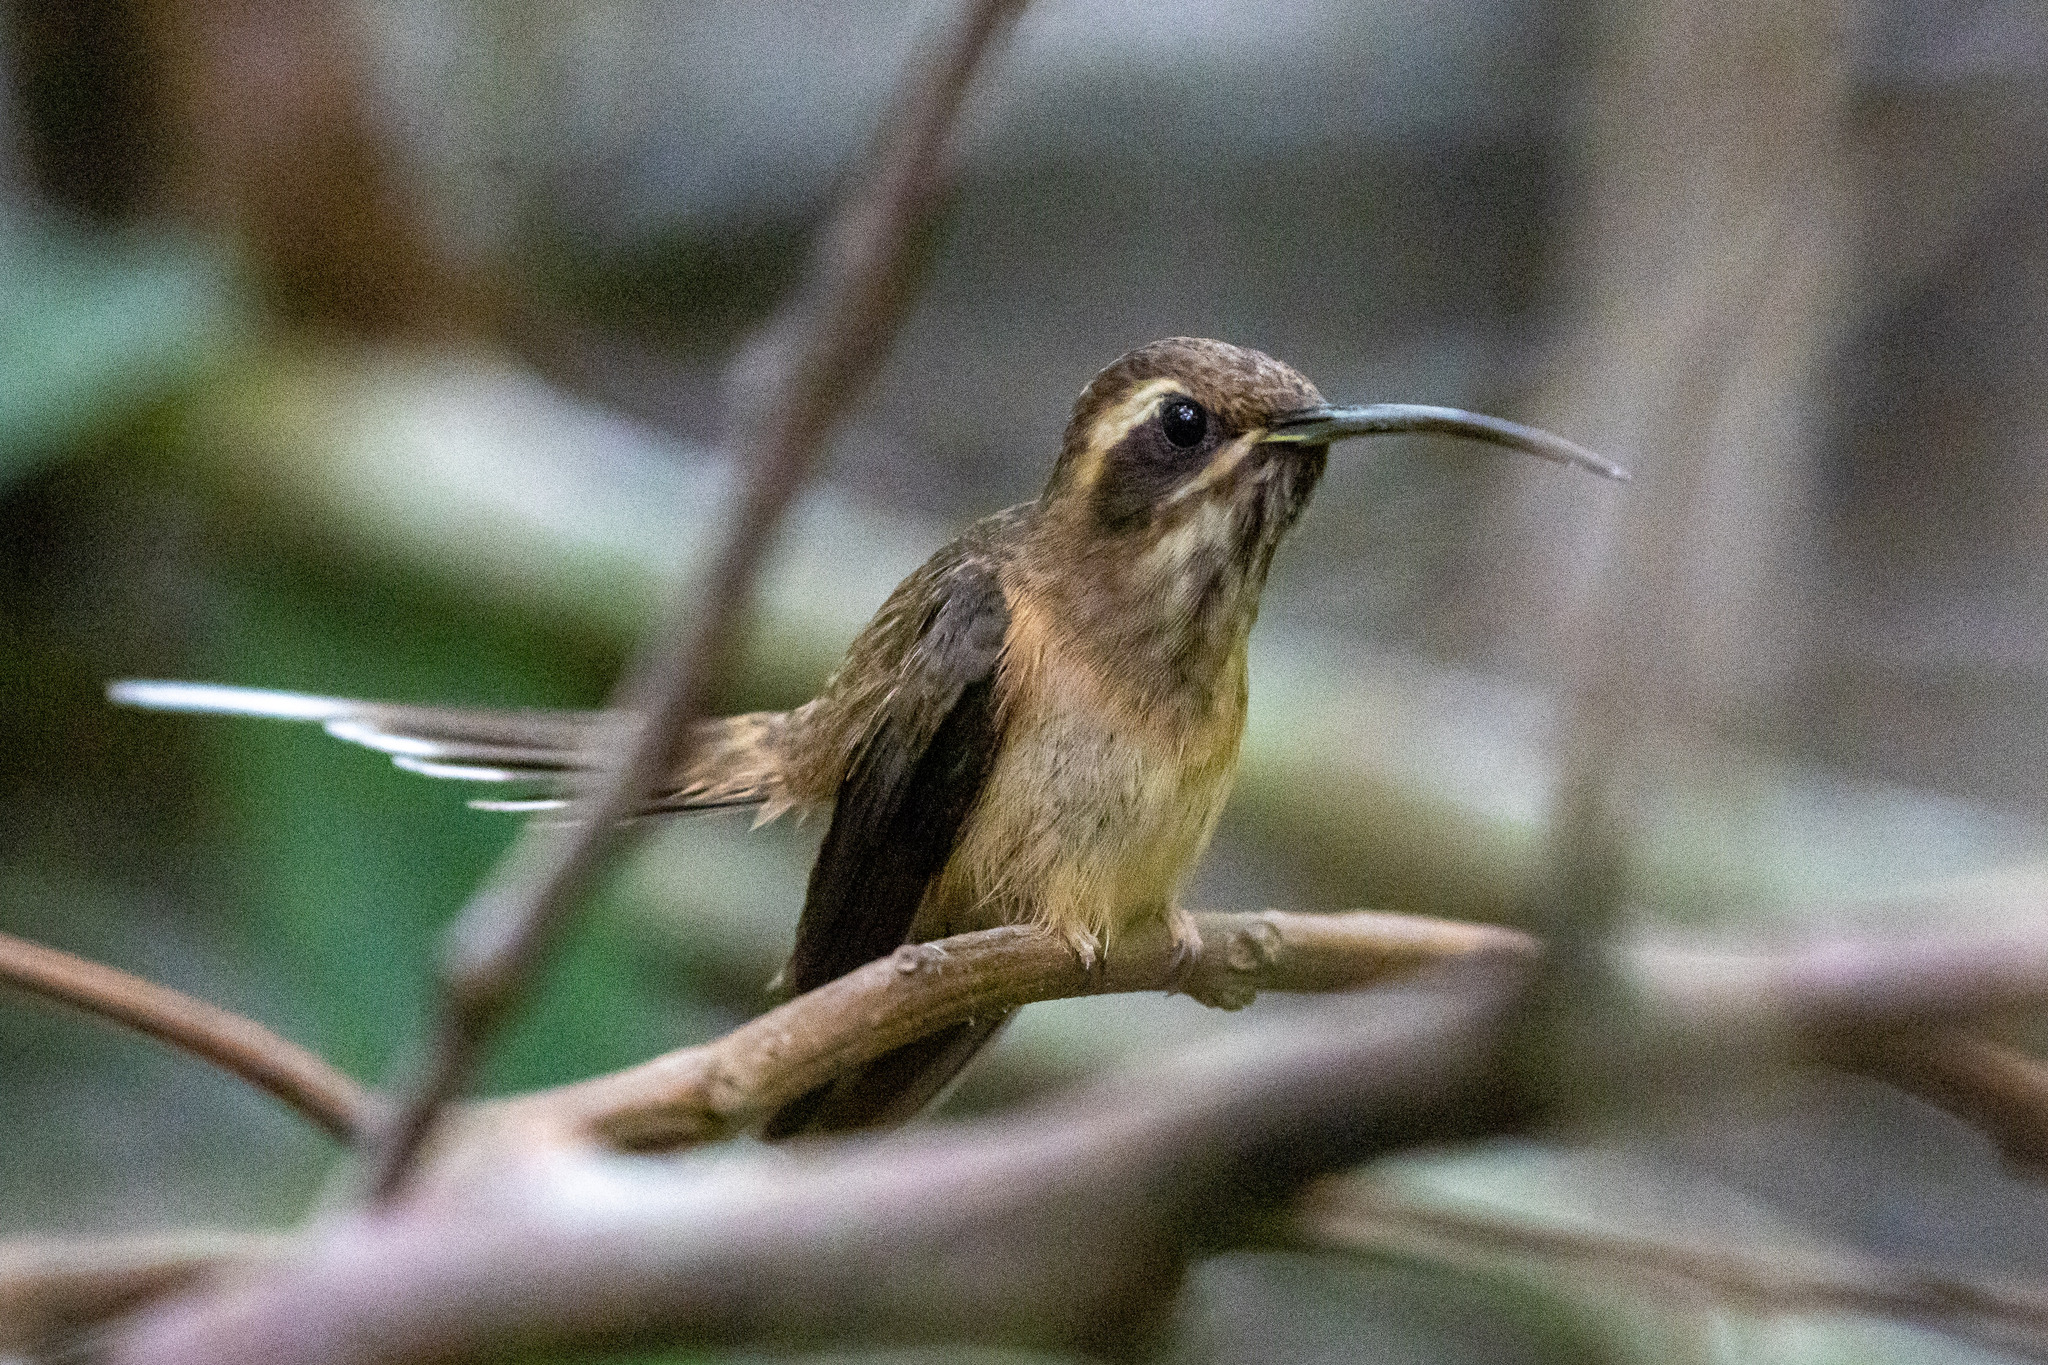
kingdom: Animalia
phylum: Chordata
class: Aves
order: Apodiformes
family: Trochilidae
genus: Phaethornis
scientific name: Phaethornis squalidus
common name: Dusky-throated hermit
